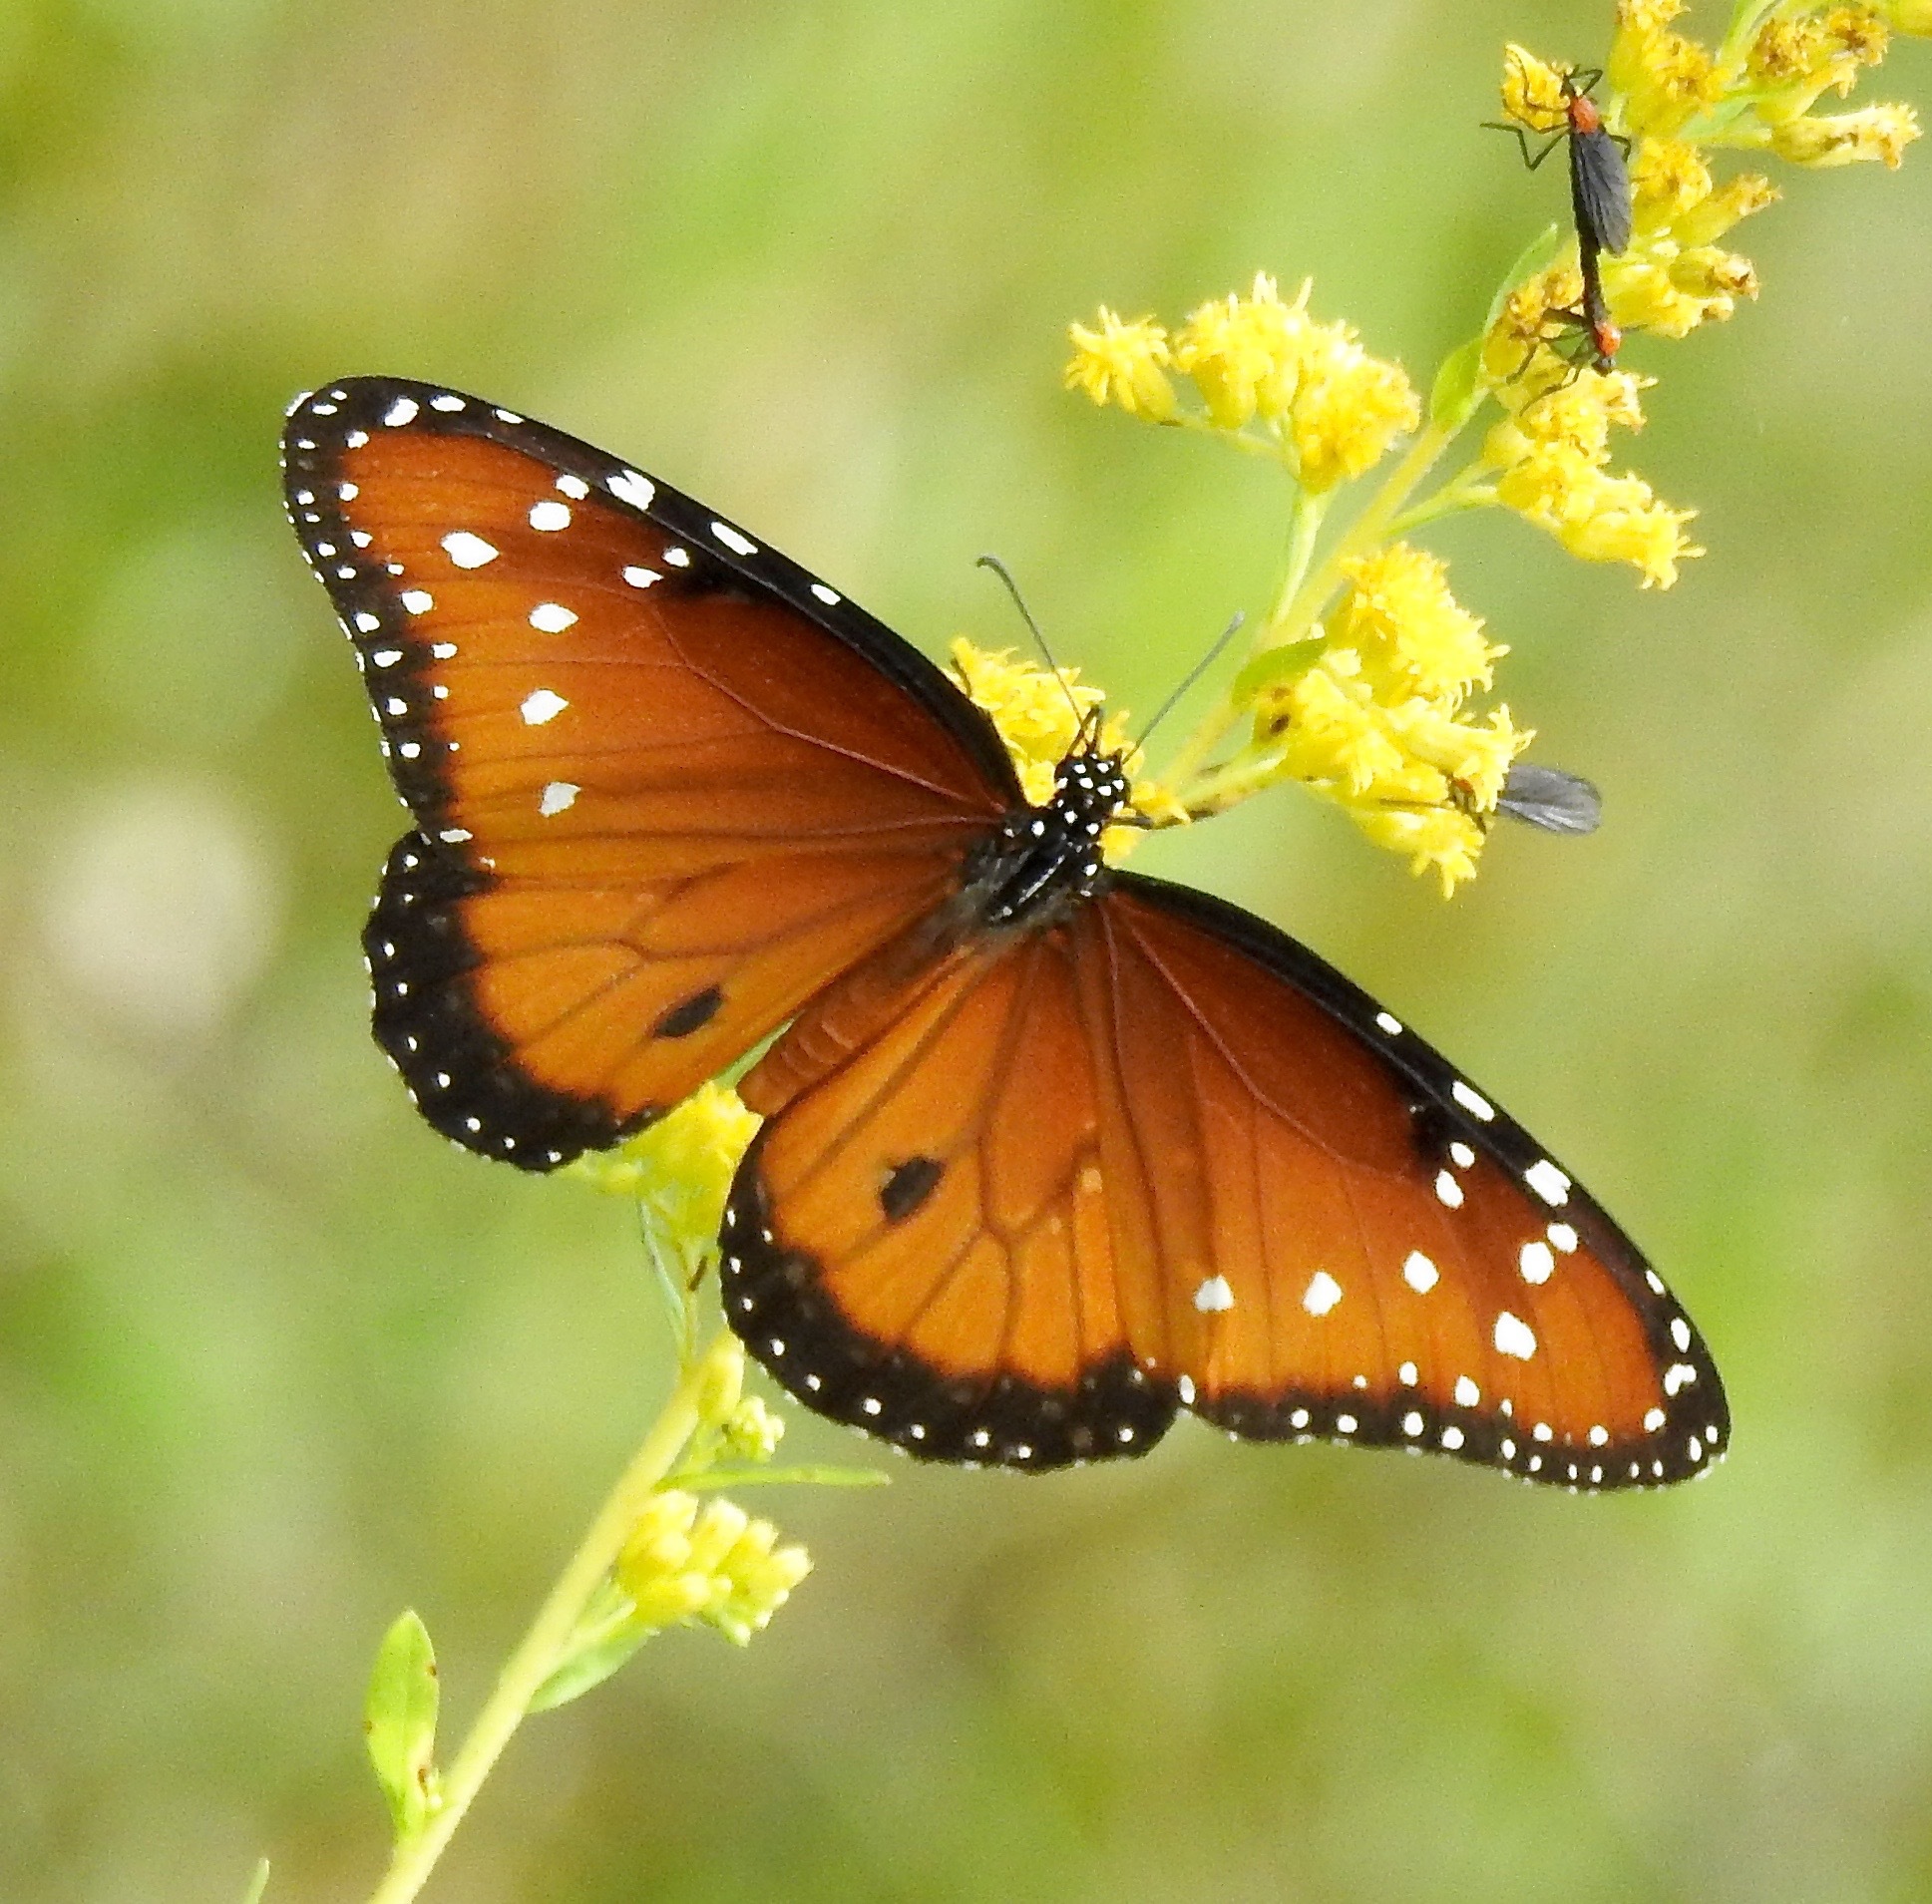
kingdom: Animalia
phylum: Arthropoda
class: Insecta
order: Lepidoptera
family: Nymphalidae
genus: Danaus
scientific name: Danaus gilippus
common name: Queen
